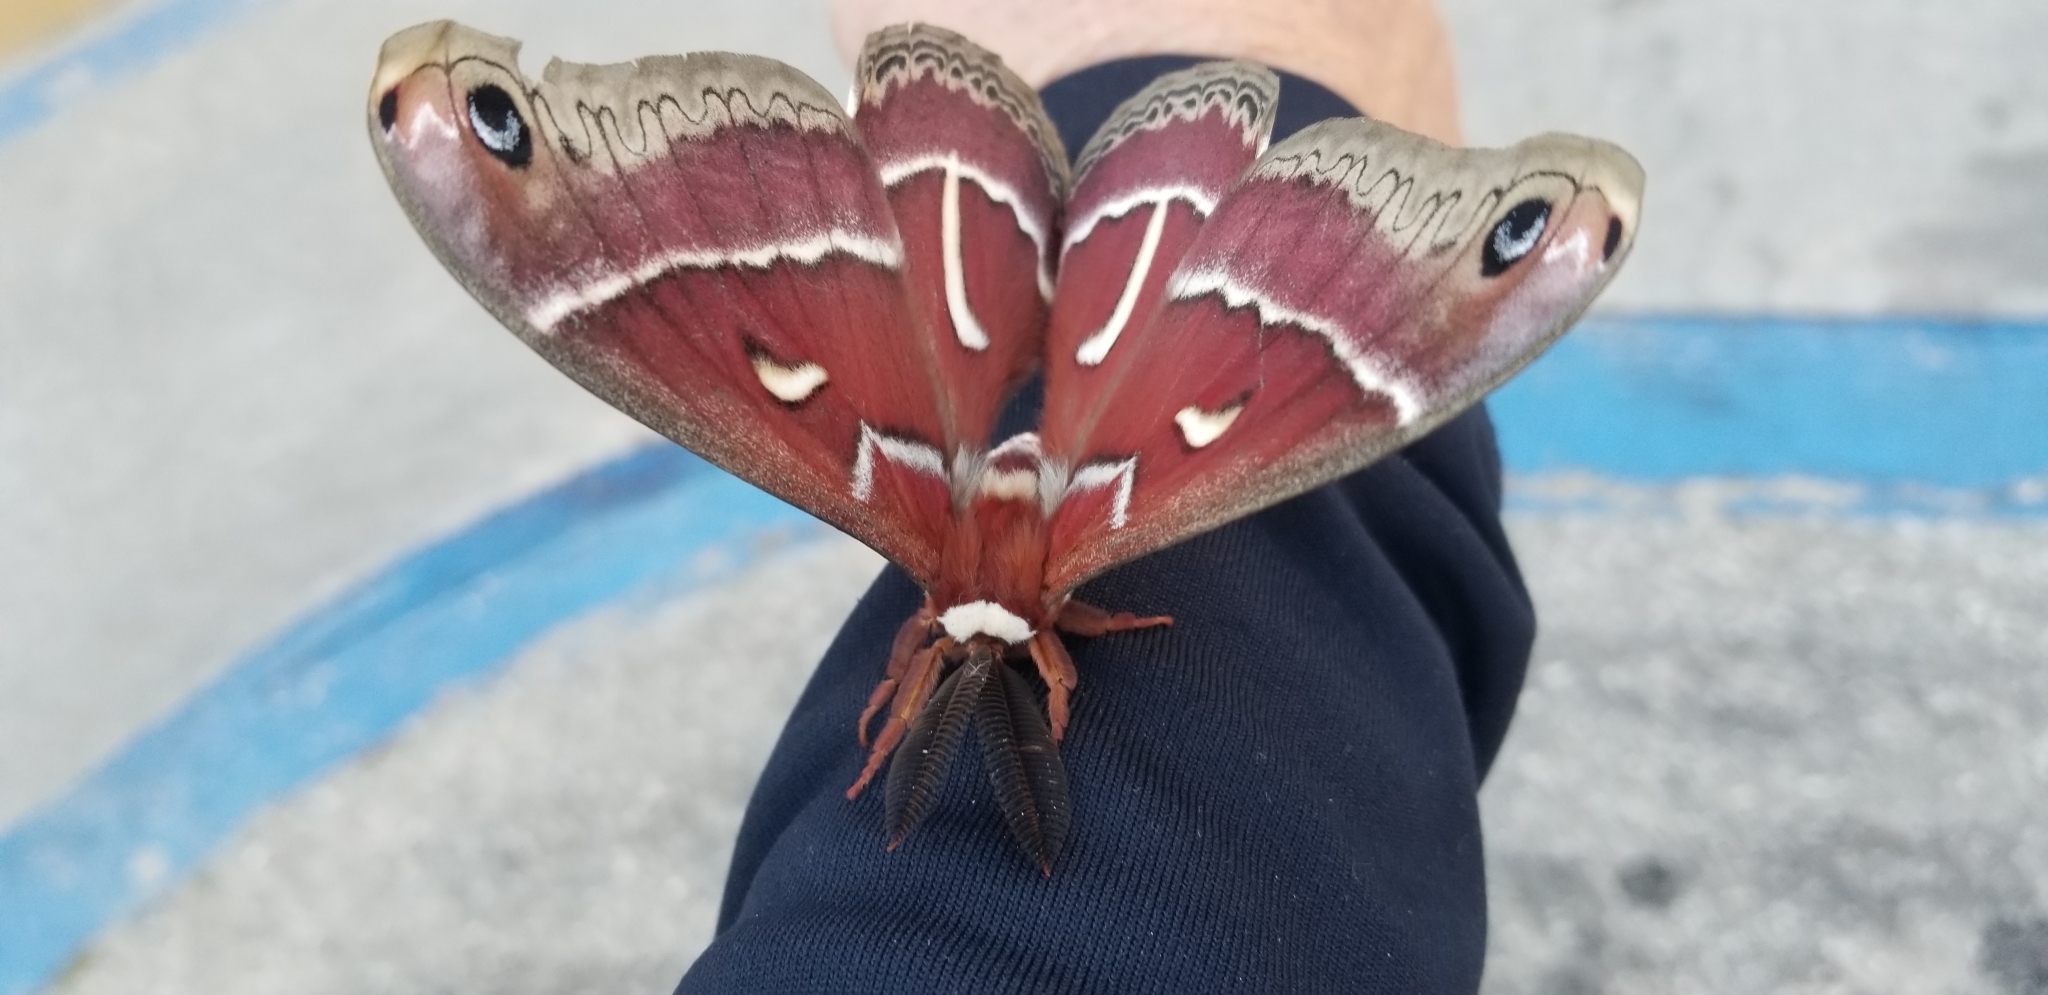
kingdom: Animalia
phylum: Arthropoda
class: Insecta
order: Lepidoptera
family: Saturniidae
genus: Hyalophora
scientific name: Hyalophora euryalus
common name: Ceanothus silkmoth
